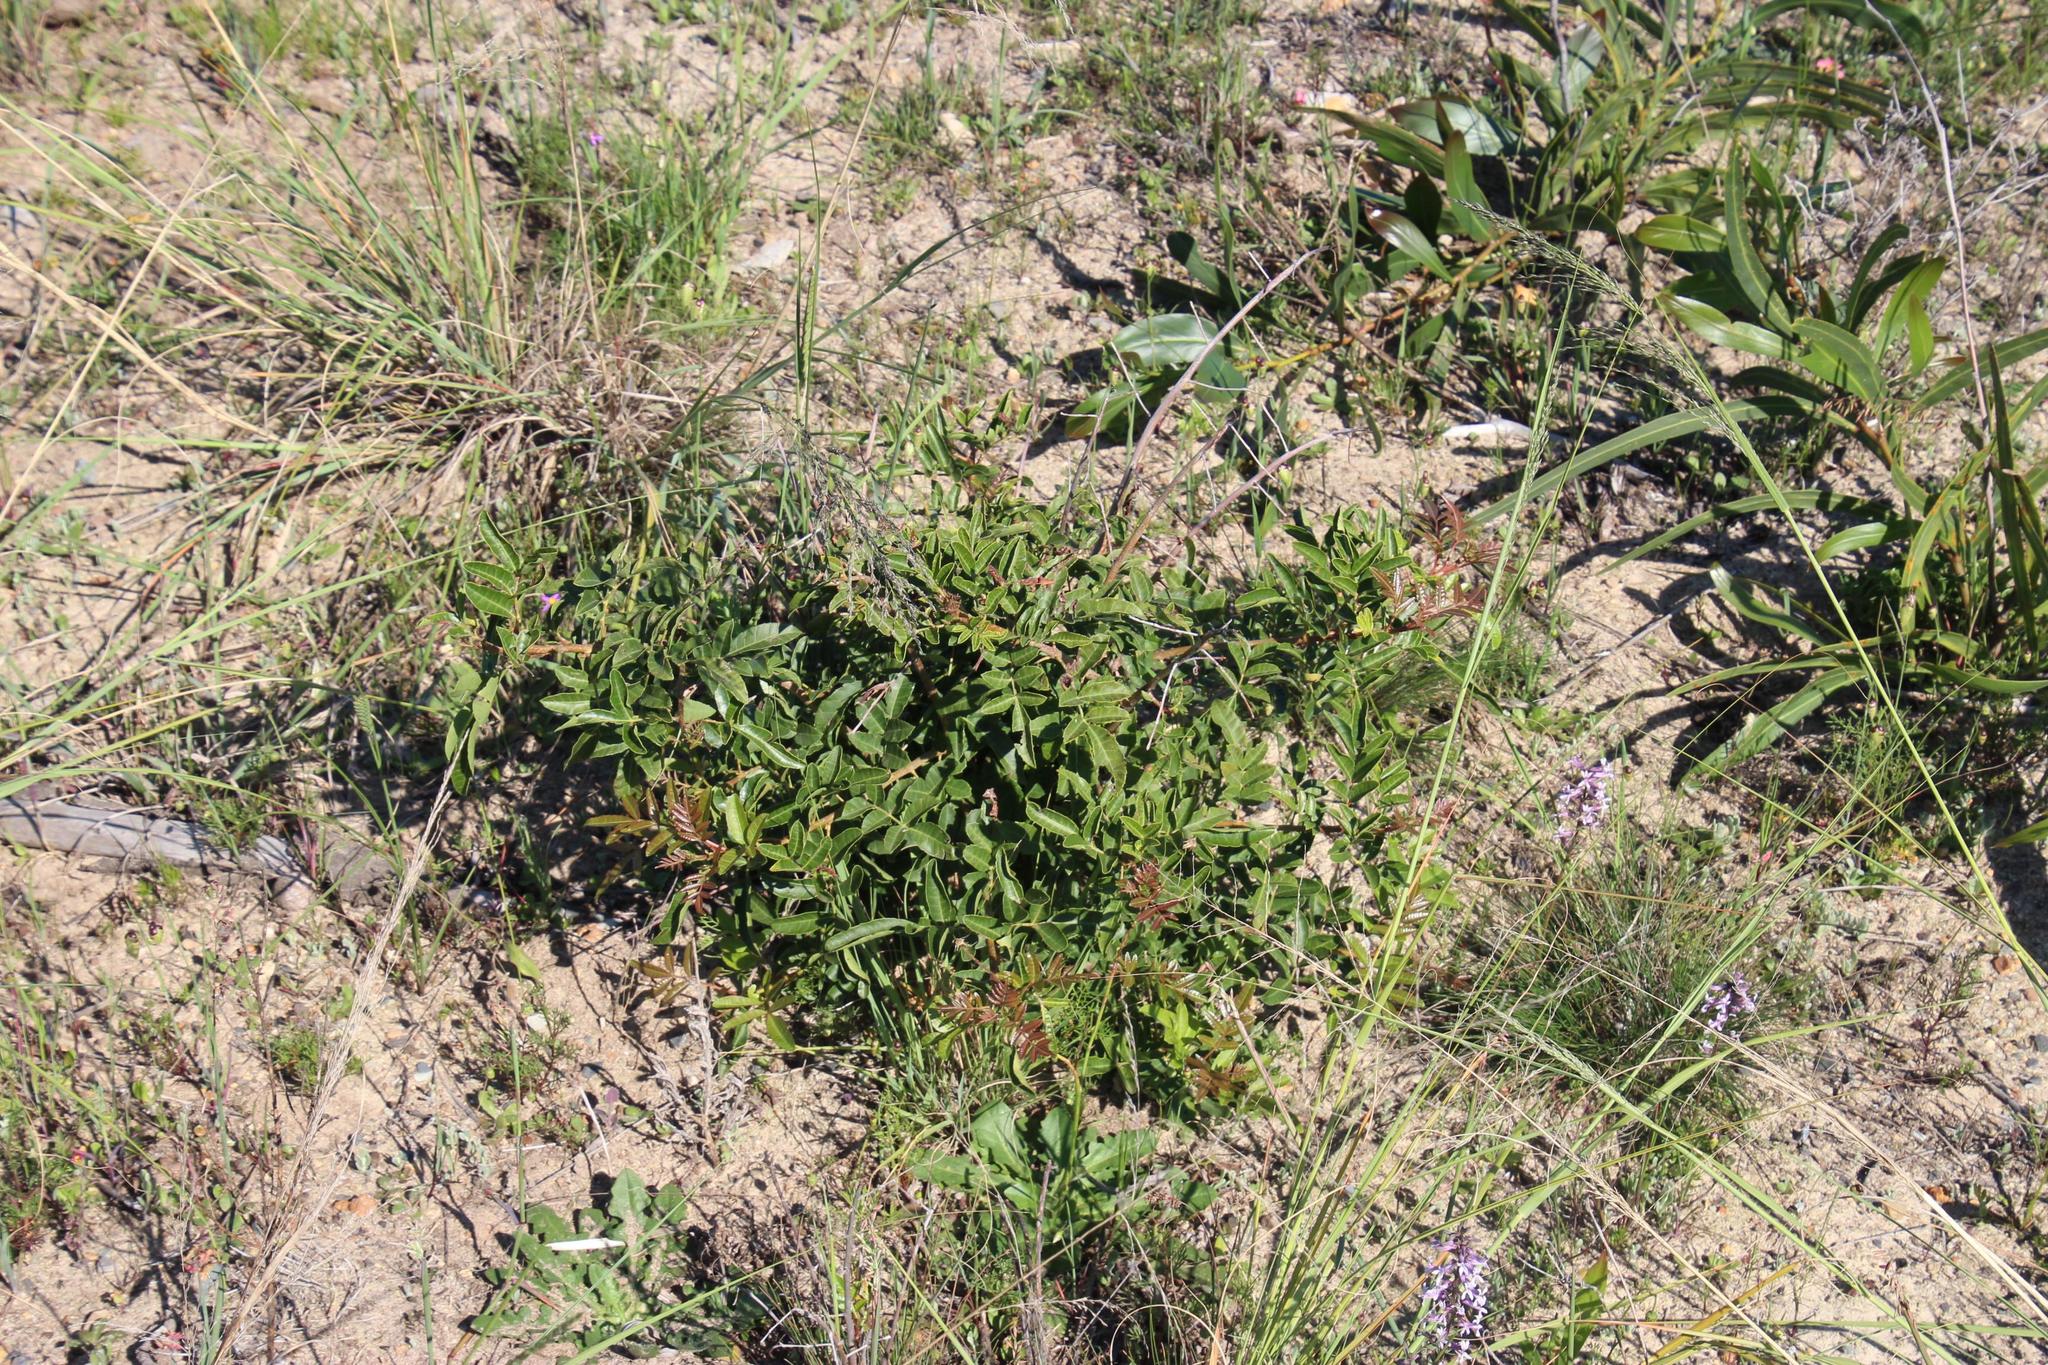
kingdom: Plantae
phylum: Tracheophyta
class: Magnoliopsida
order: Sapindales
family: Anacardiaceae
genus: Schinus
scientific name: Schinus terebinthifolia
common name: Brazilian peppertree
